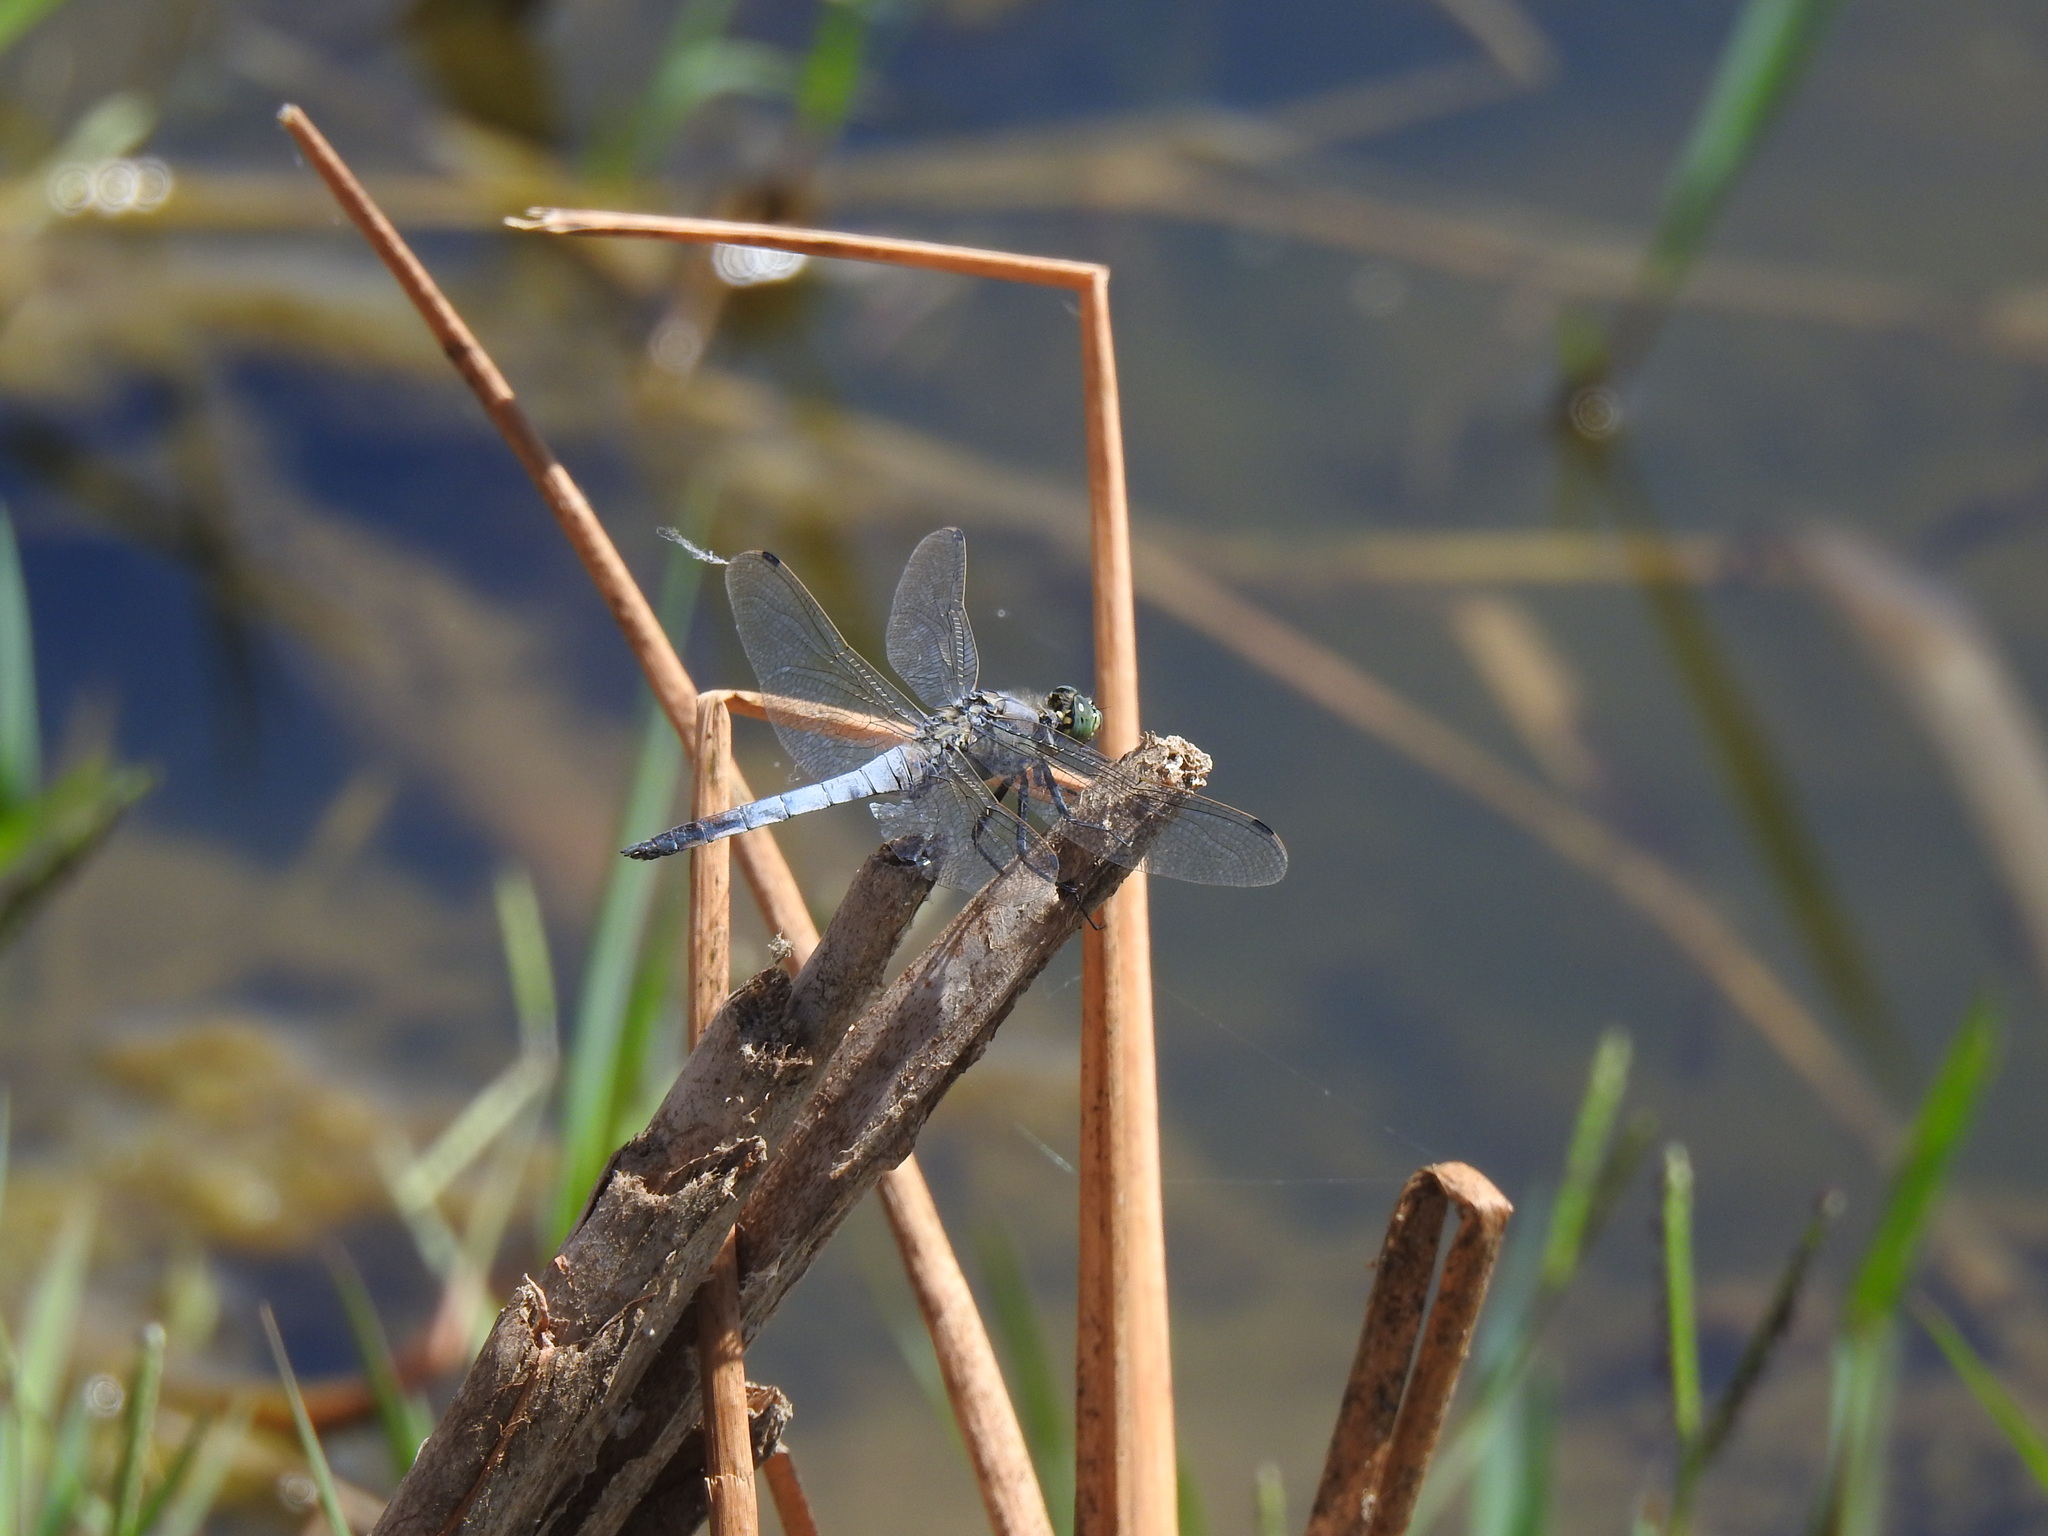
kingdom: Animalia
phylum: Arthropoda
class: Insecta
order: Odonata
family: Libellulidae
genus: Orthetrum
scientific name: Orthetrum cancellatum
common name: Black-tailed skimmer
